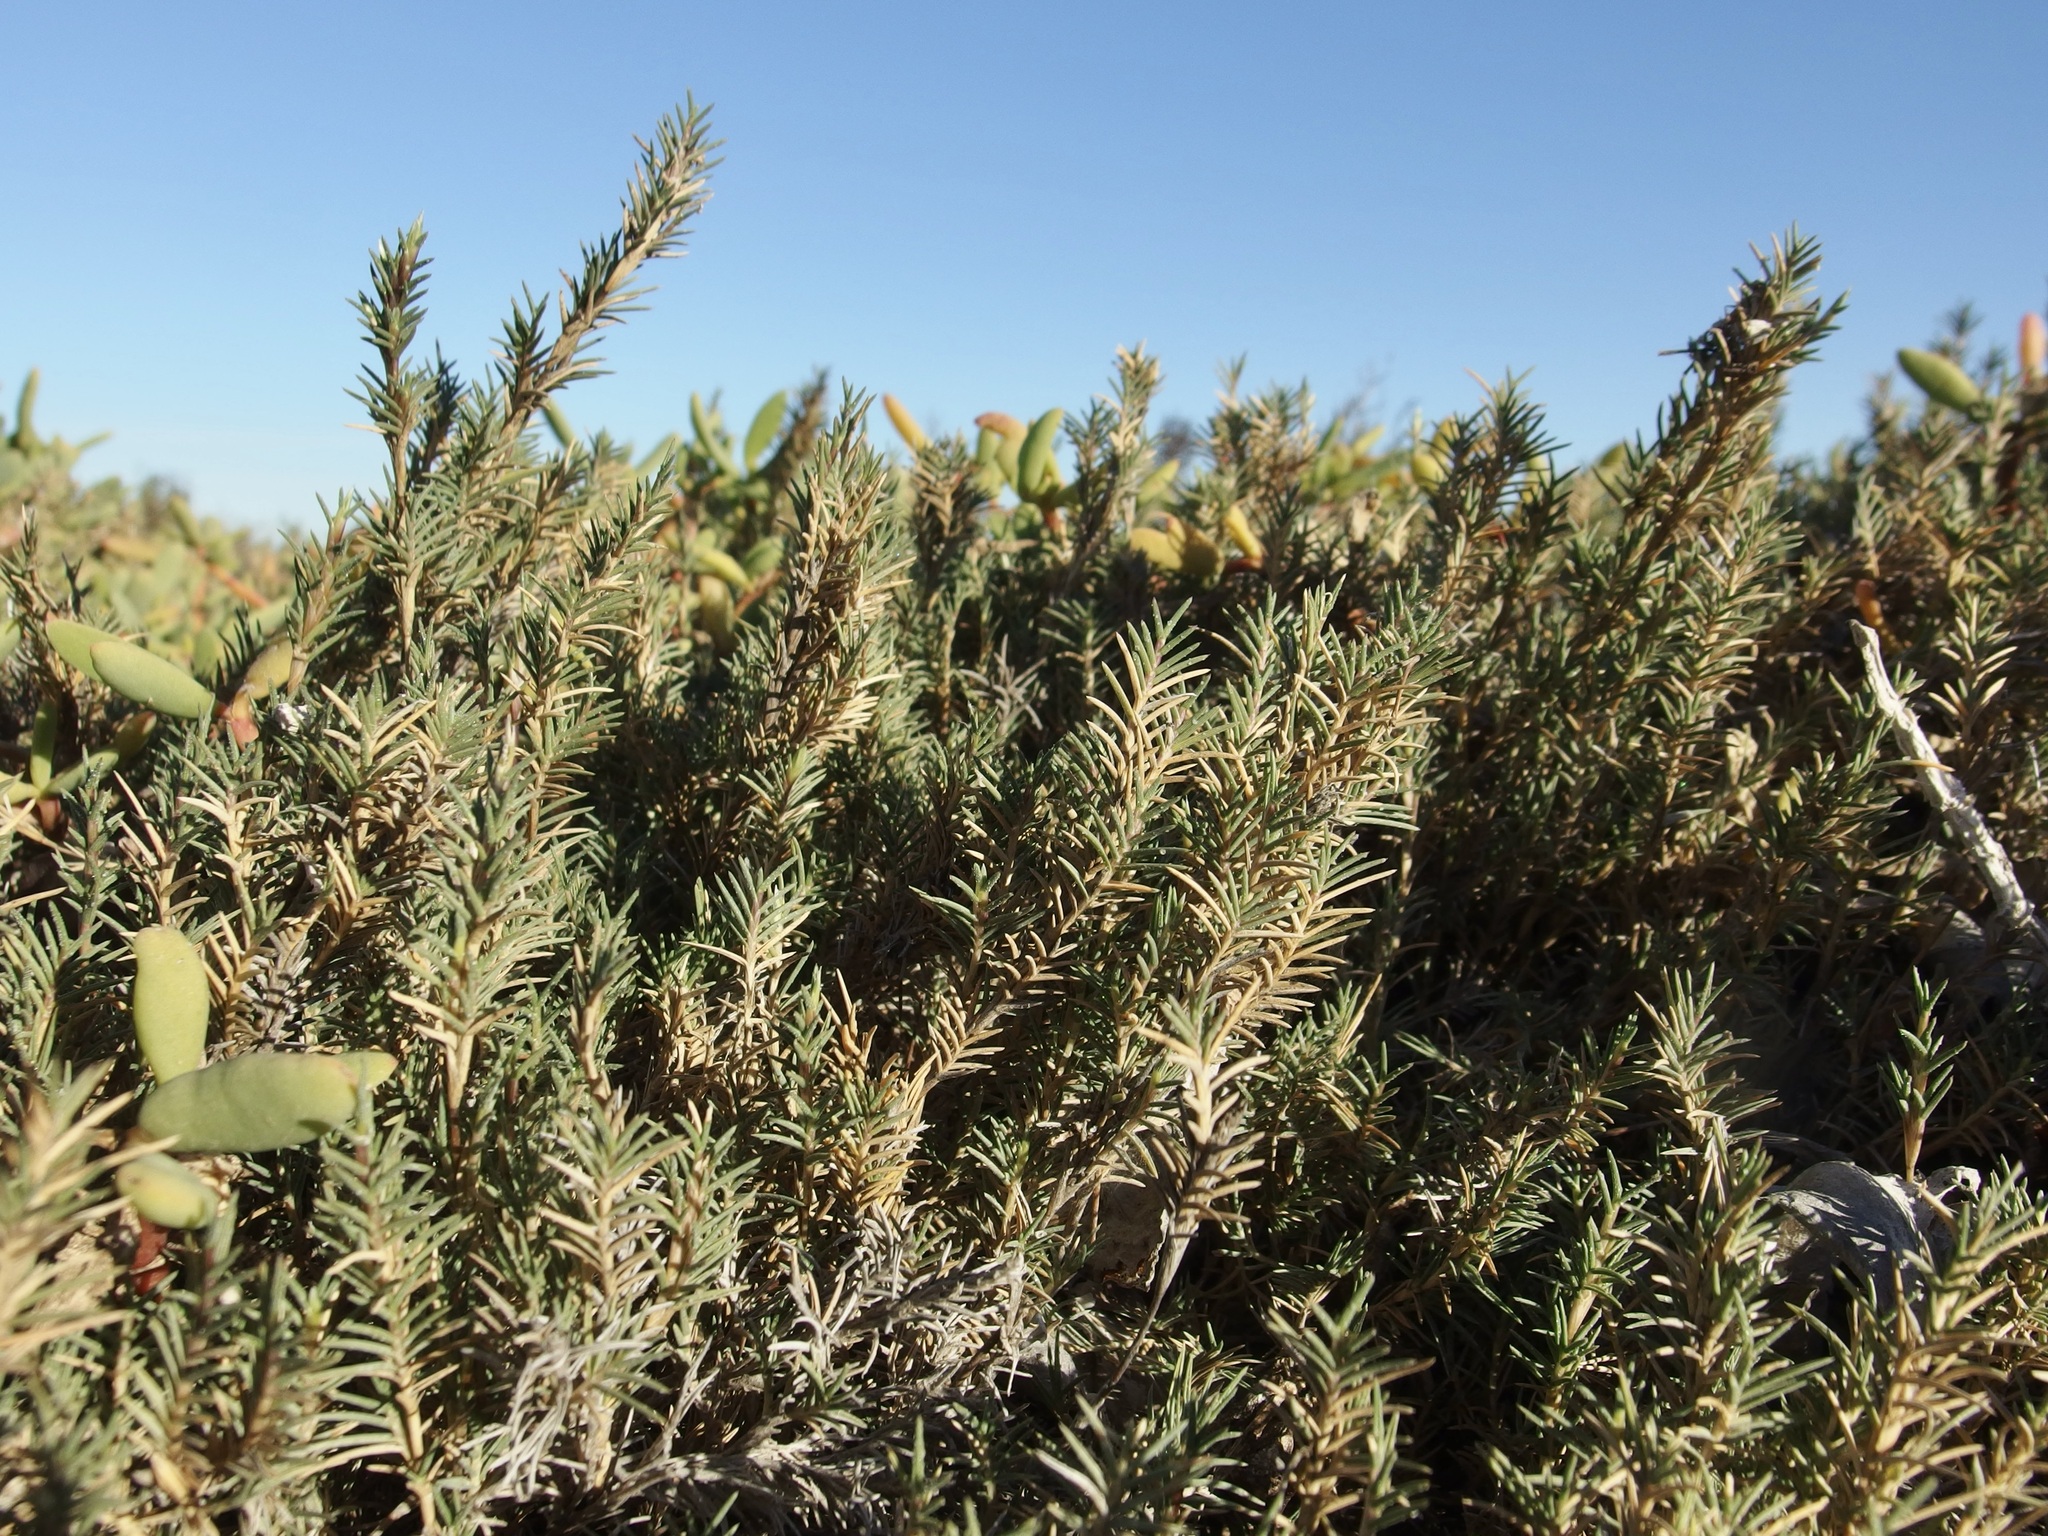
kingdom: Plantae
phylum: Tracheophyta
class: Liliopsida
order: Poales
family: Poaceae
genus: Distichlis
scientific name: Distichlis littoralis
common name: Shore grass
